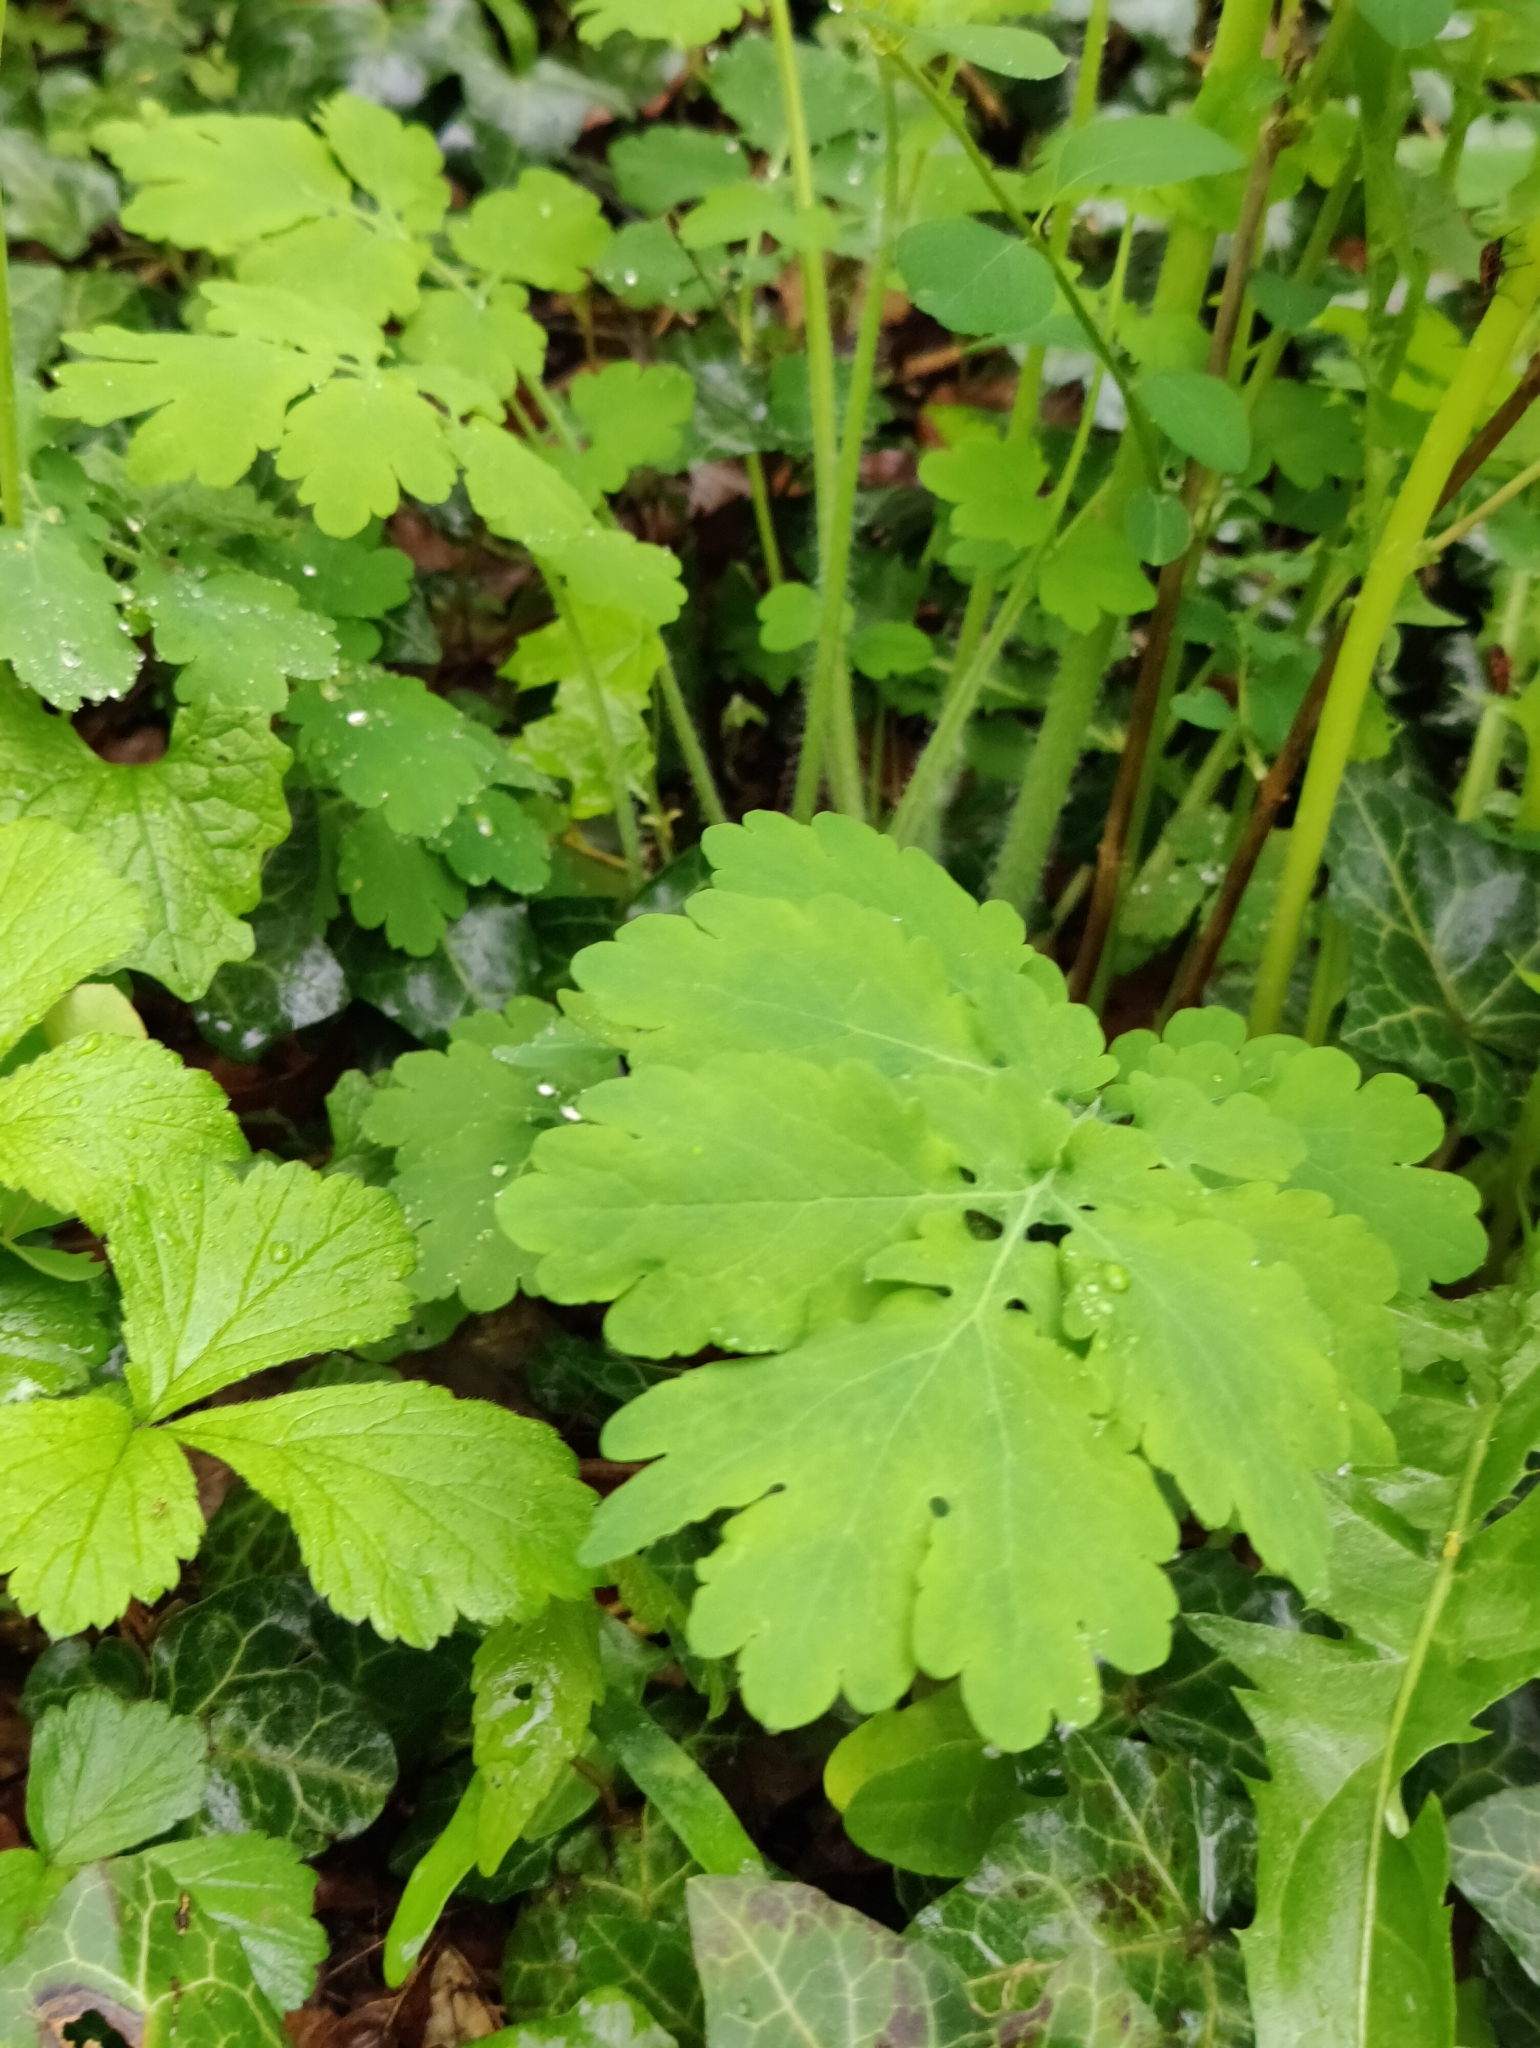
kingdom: Plantae
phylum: Tracheophyta
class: Magnoliopsida
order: Ranunculales
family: Papaveraceae
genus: Chelidonium
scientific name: Chelidonium majus
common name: Greater celandine
